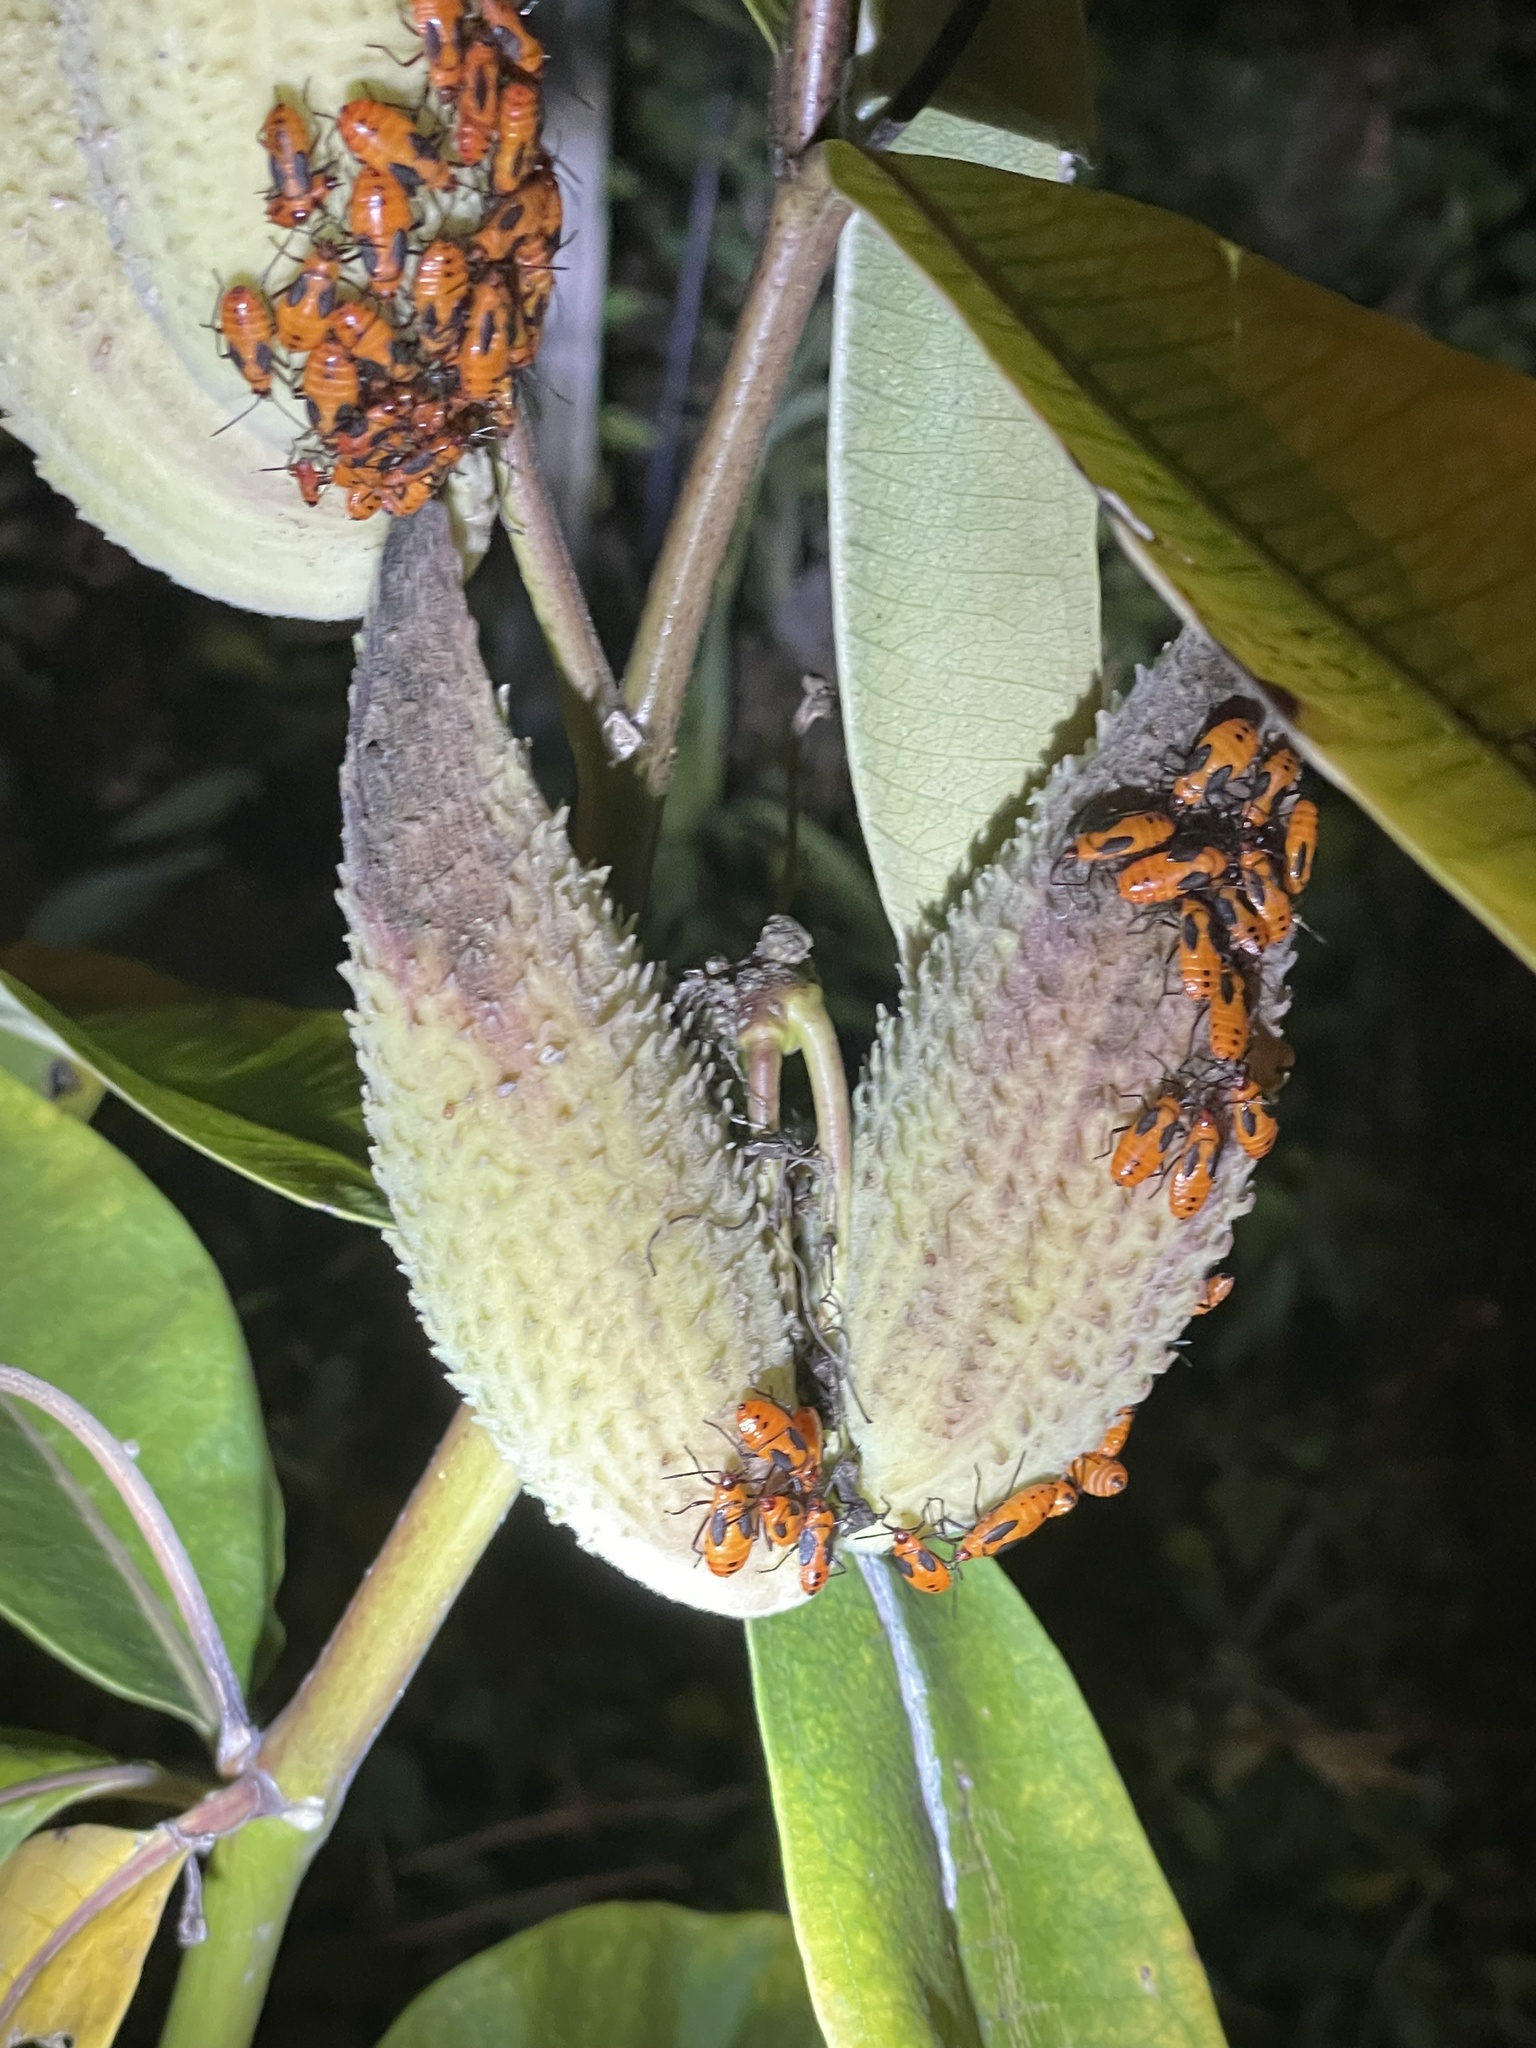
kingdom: Animalia
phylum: Arthropoda
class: Insecta
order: Hemiptera
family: Lygaeidae
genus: Oncopeltus
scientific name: Oncopeltus fasciatus
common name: Large milkweed bug
